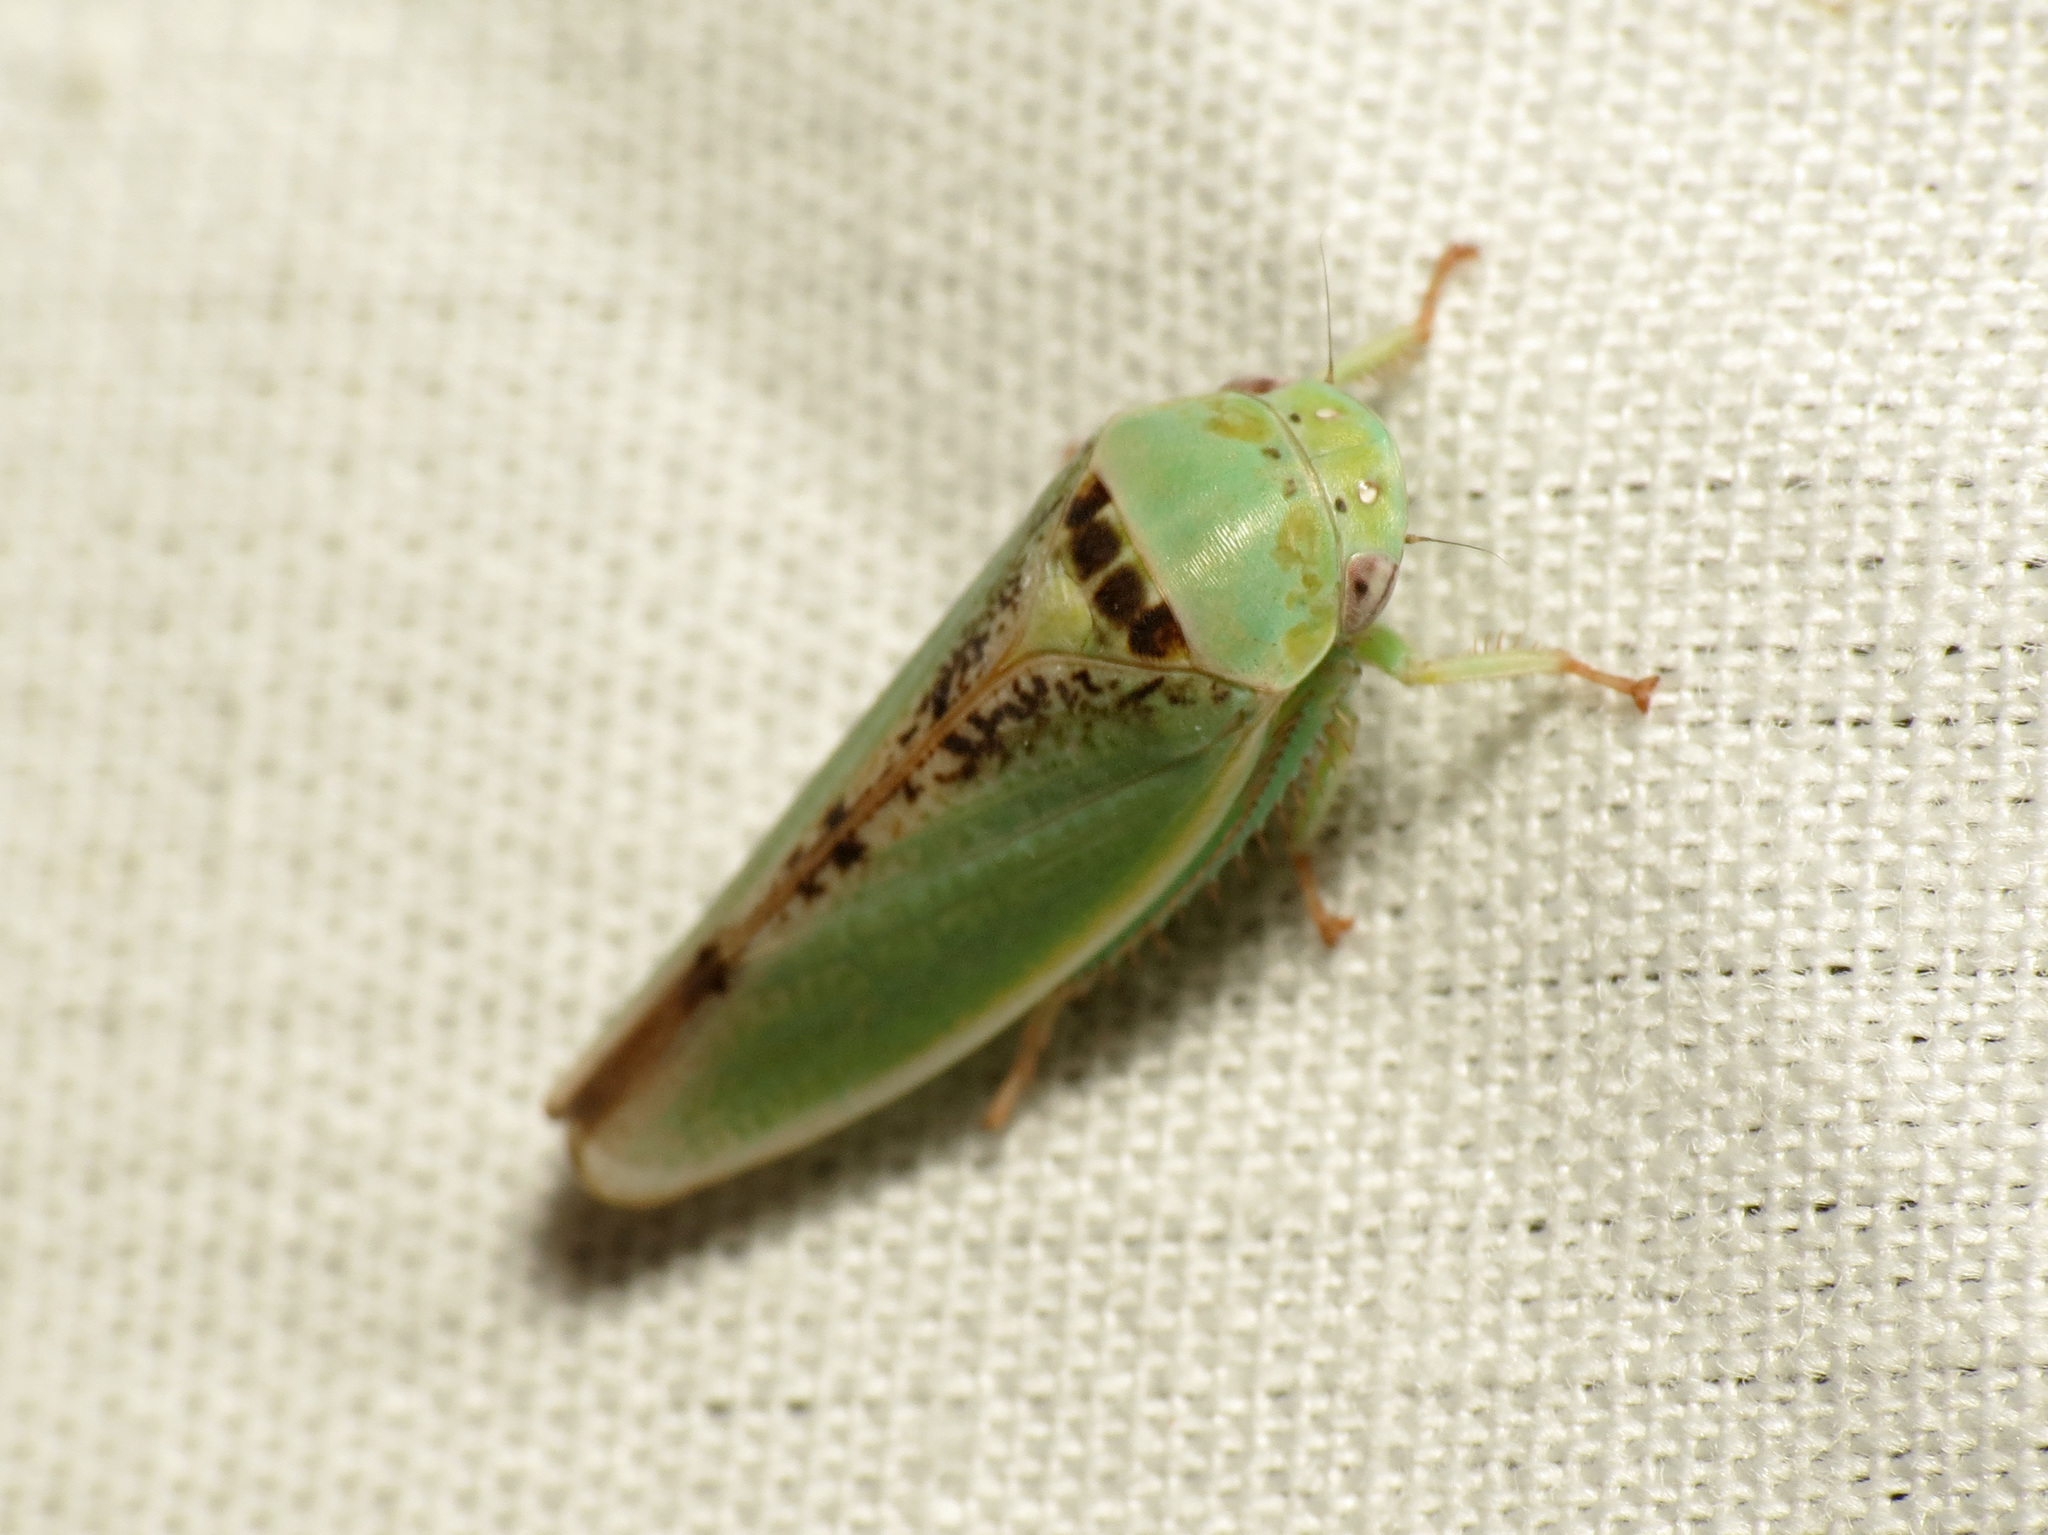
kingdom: Animalia
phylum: Arthropoda
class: Insecta
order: Hemiptera
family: Cicadellidae
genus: Hamana
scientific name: Hamana dictitoria
